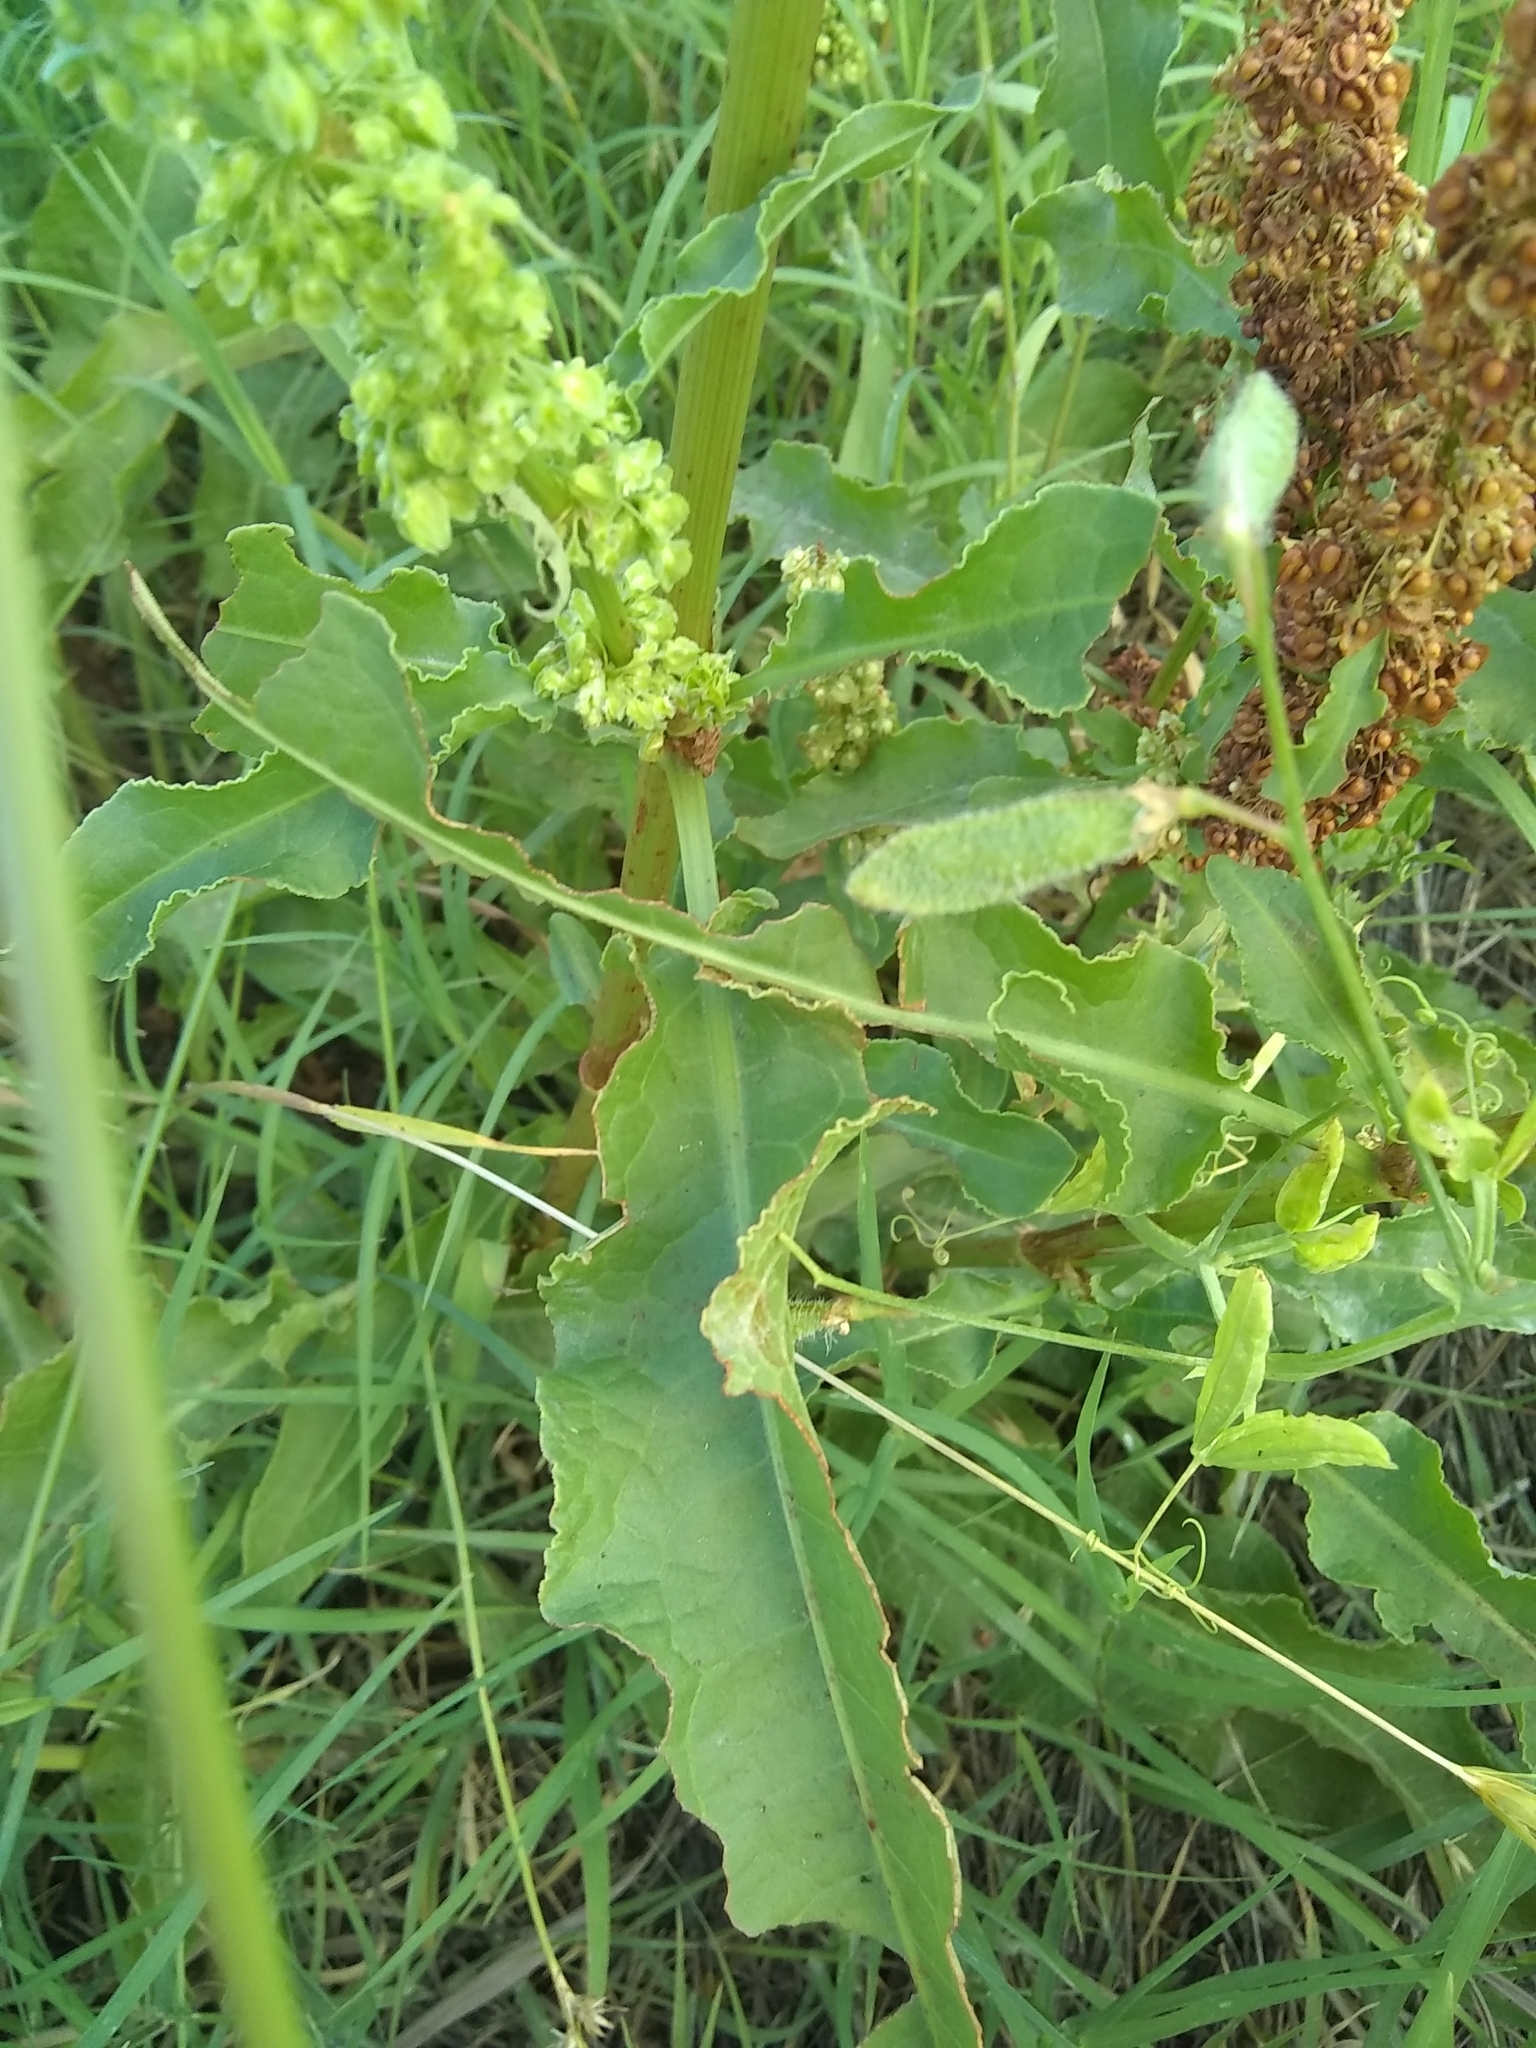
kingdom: Plantae
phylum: Tracheophyta
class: Magnoliopsida
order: Caryophyllales
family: Polygonaceae
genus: Rumex
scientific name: Rumex crispus
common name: Curled dock
